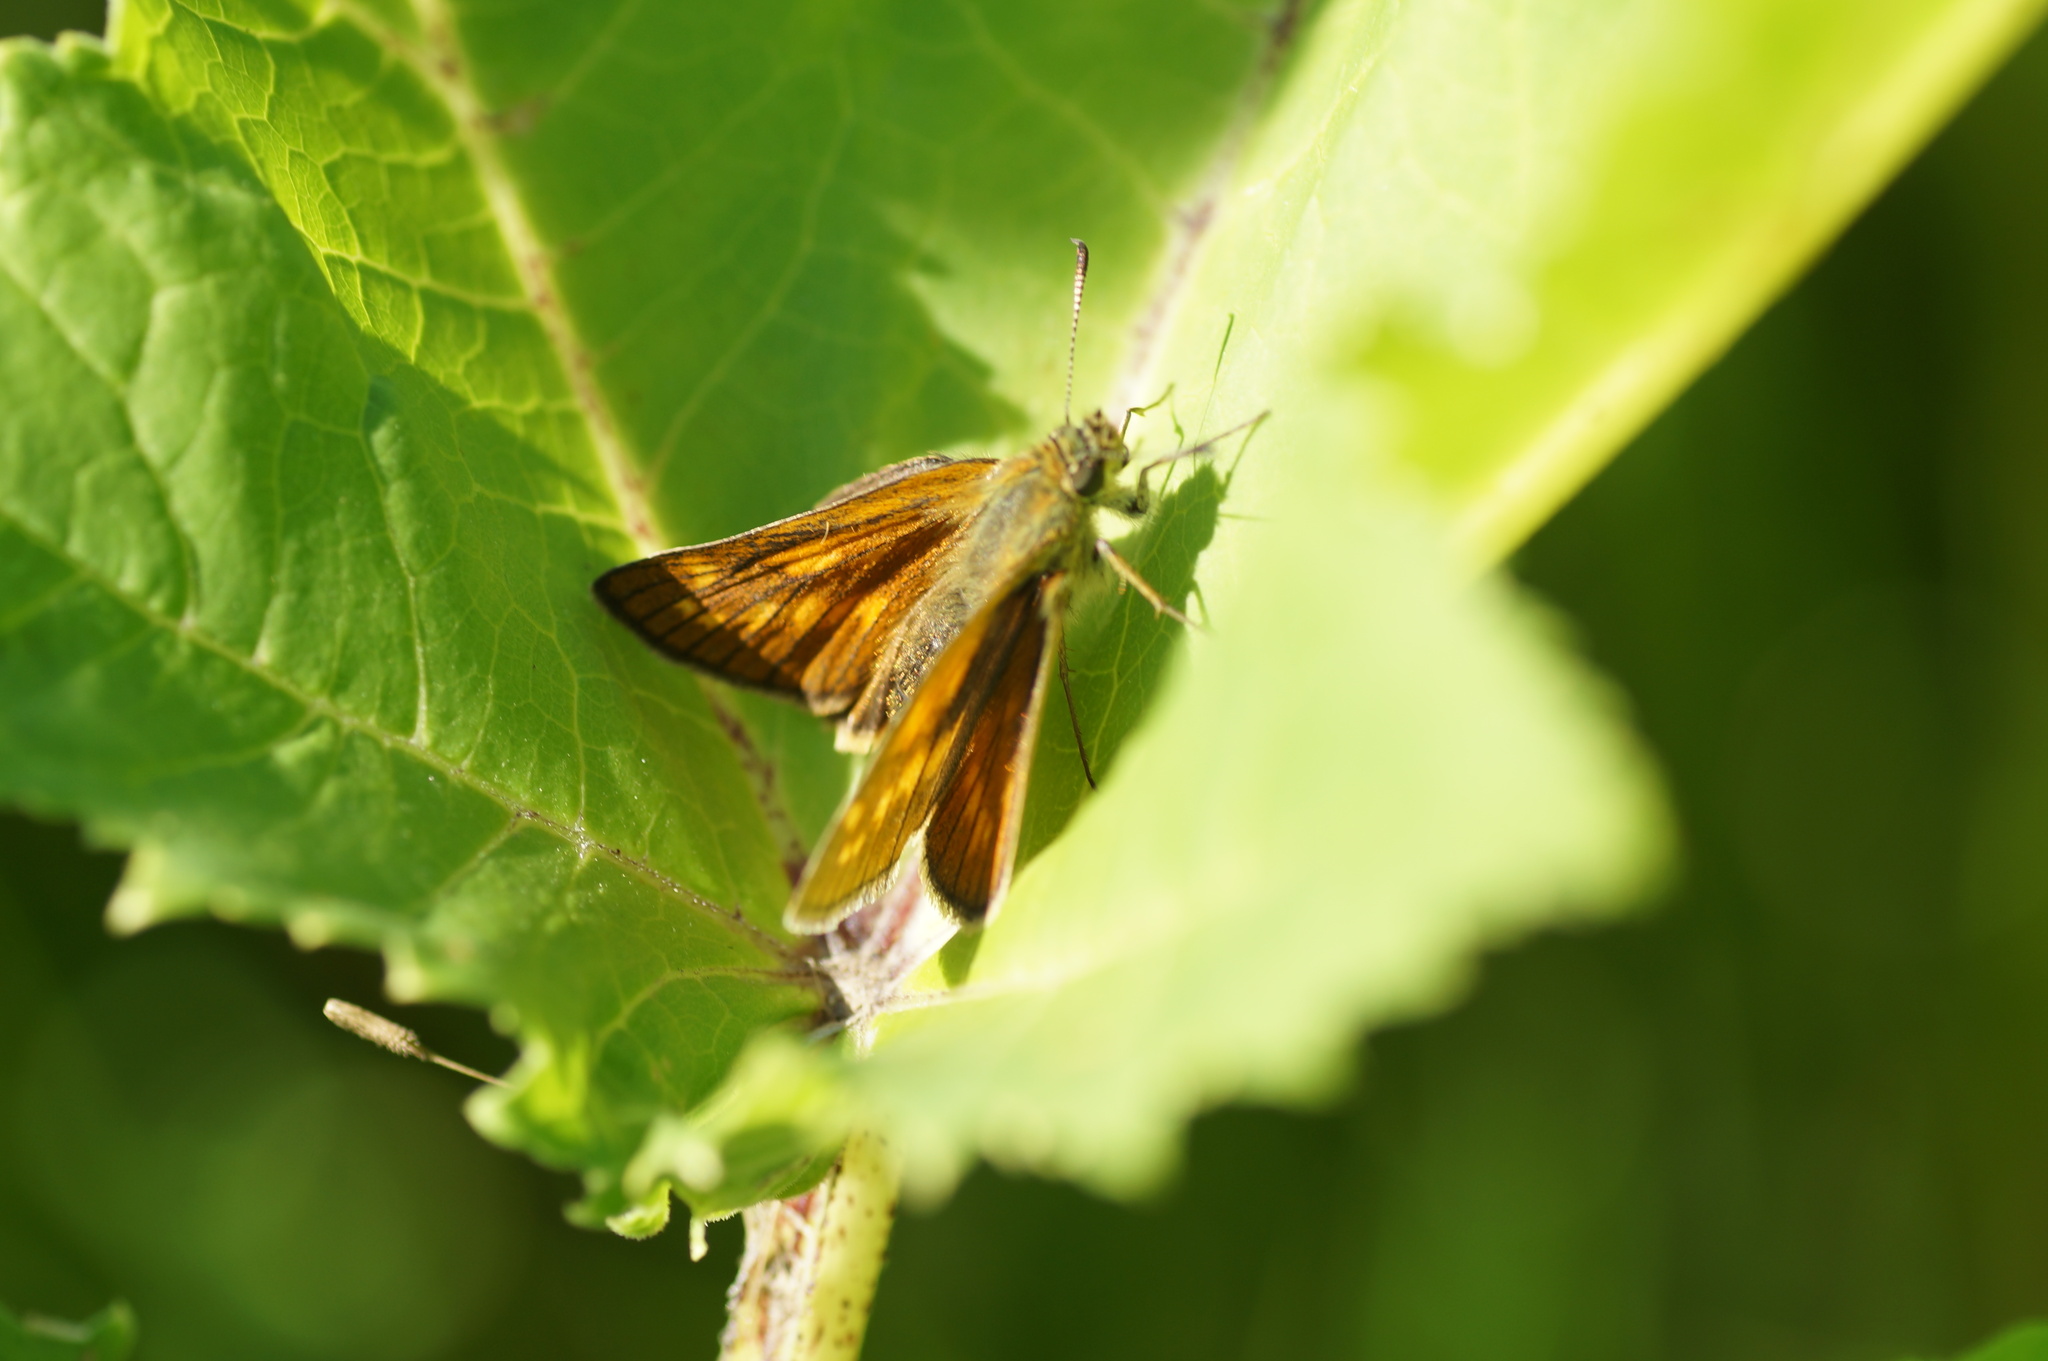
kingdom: Animalia
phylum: Arthropoda
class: Insecta
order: Lepidoptera
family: Hesperiidae
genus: Ochlodes
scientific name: Ochlodes venata
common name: Large skipper
